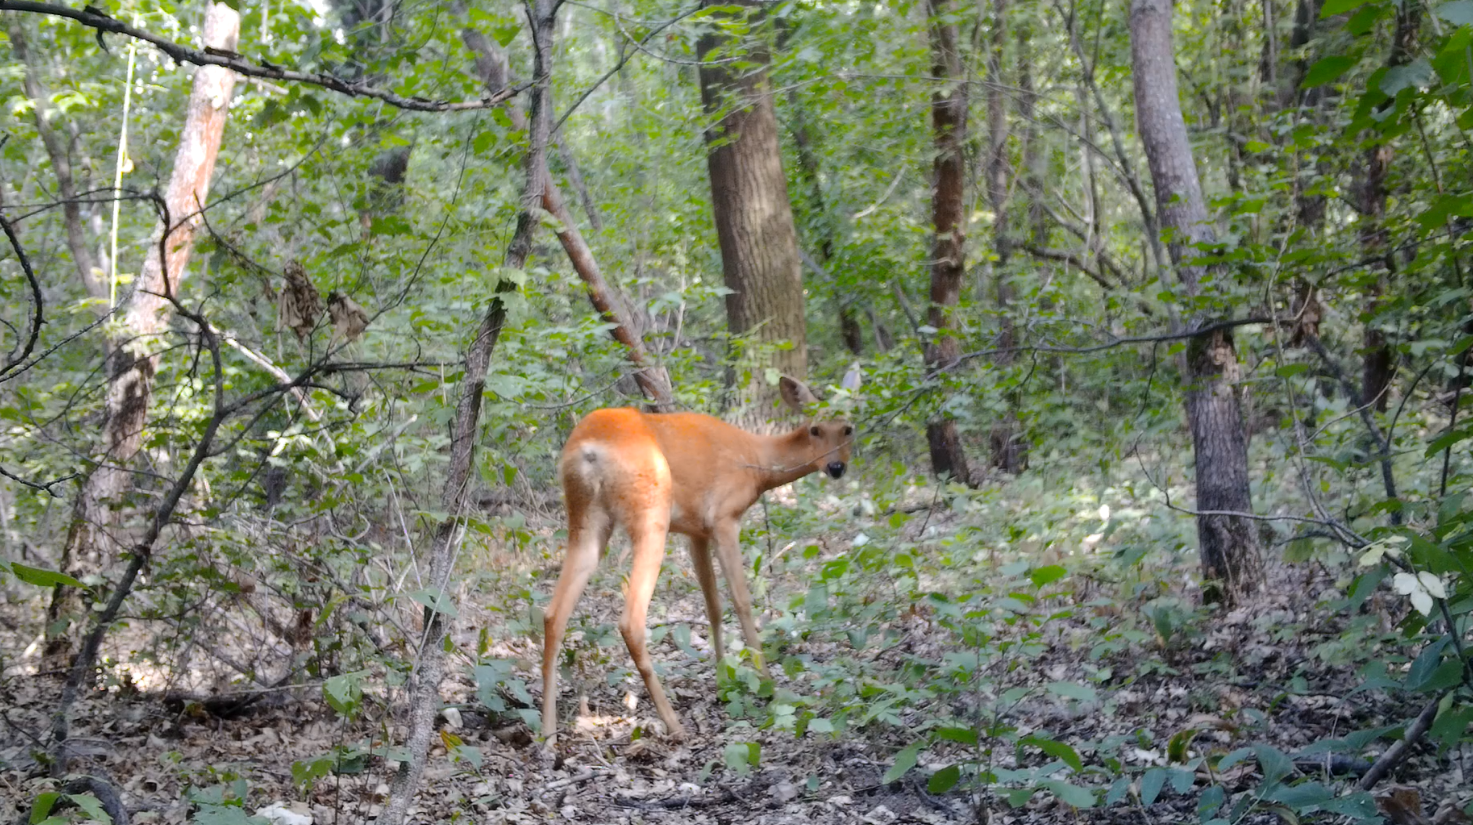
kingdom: Animalia
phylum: Chordata
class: Mammalia
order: Artiodactyla
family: Cervidae
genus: Capreolus
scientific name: Capreolus pygargus
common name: Siberian roe
